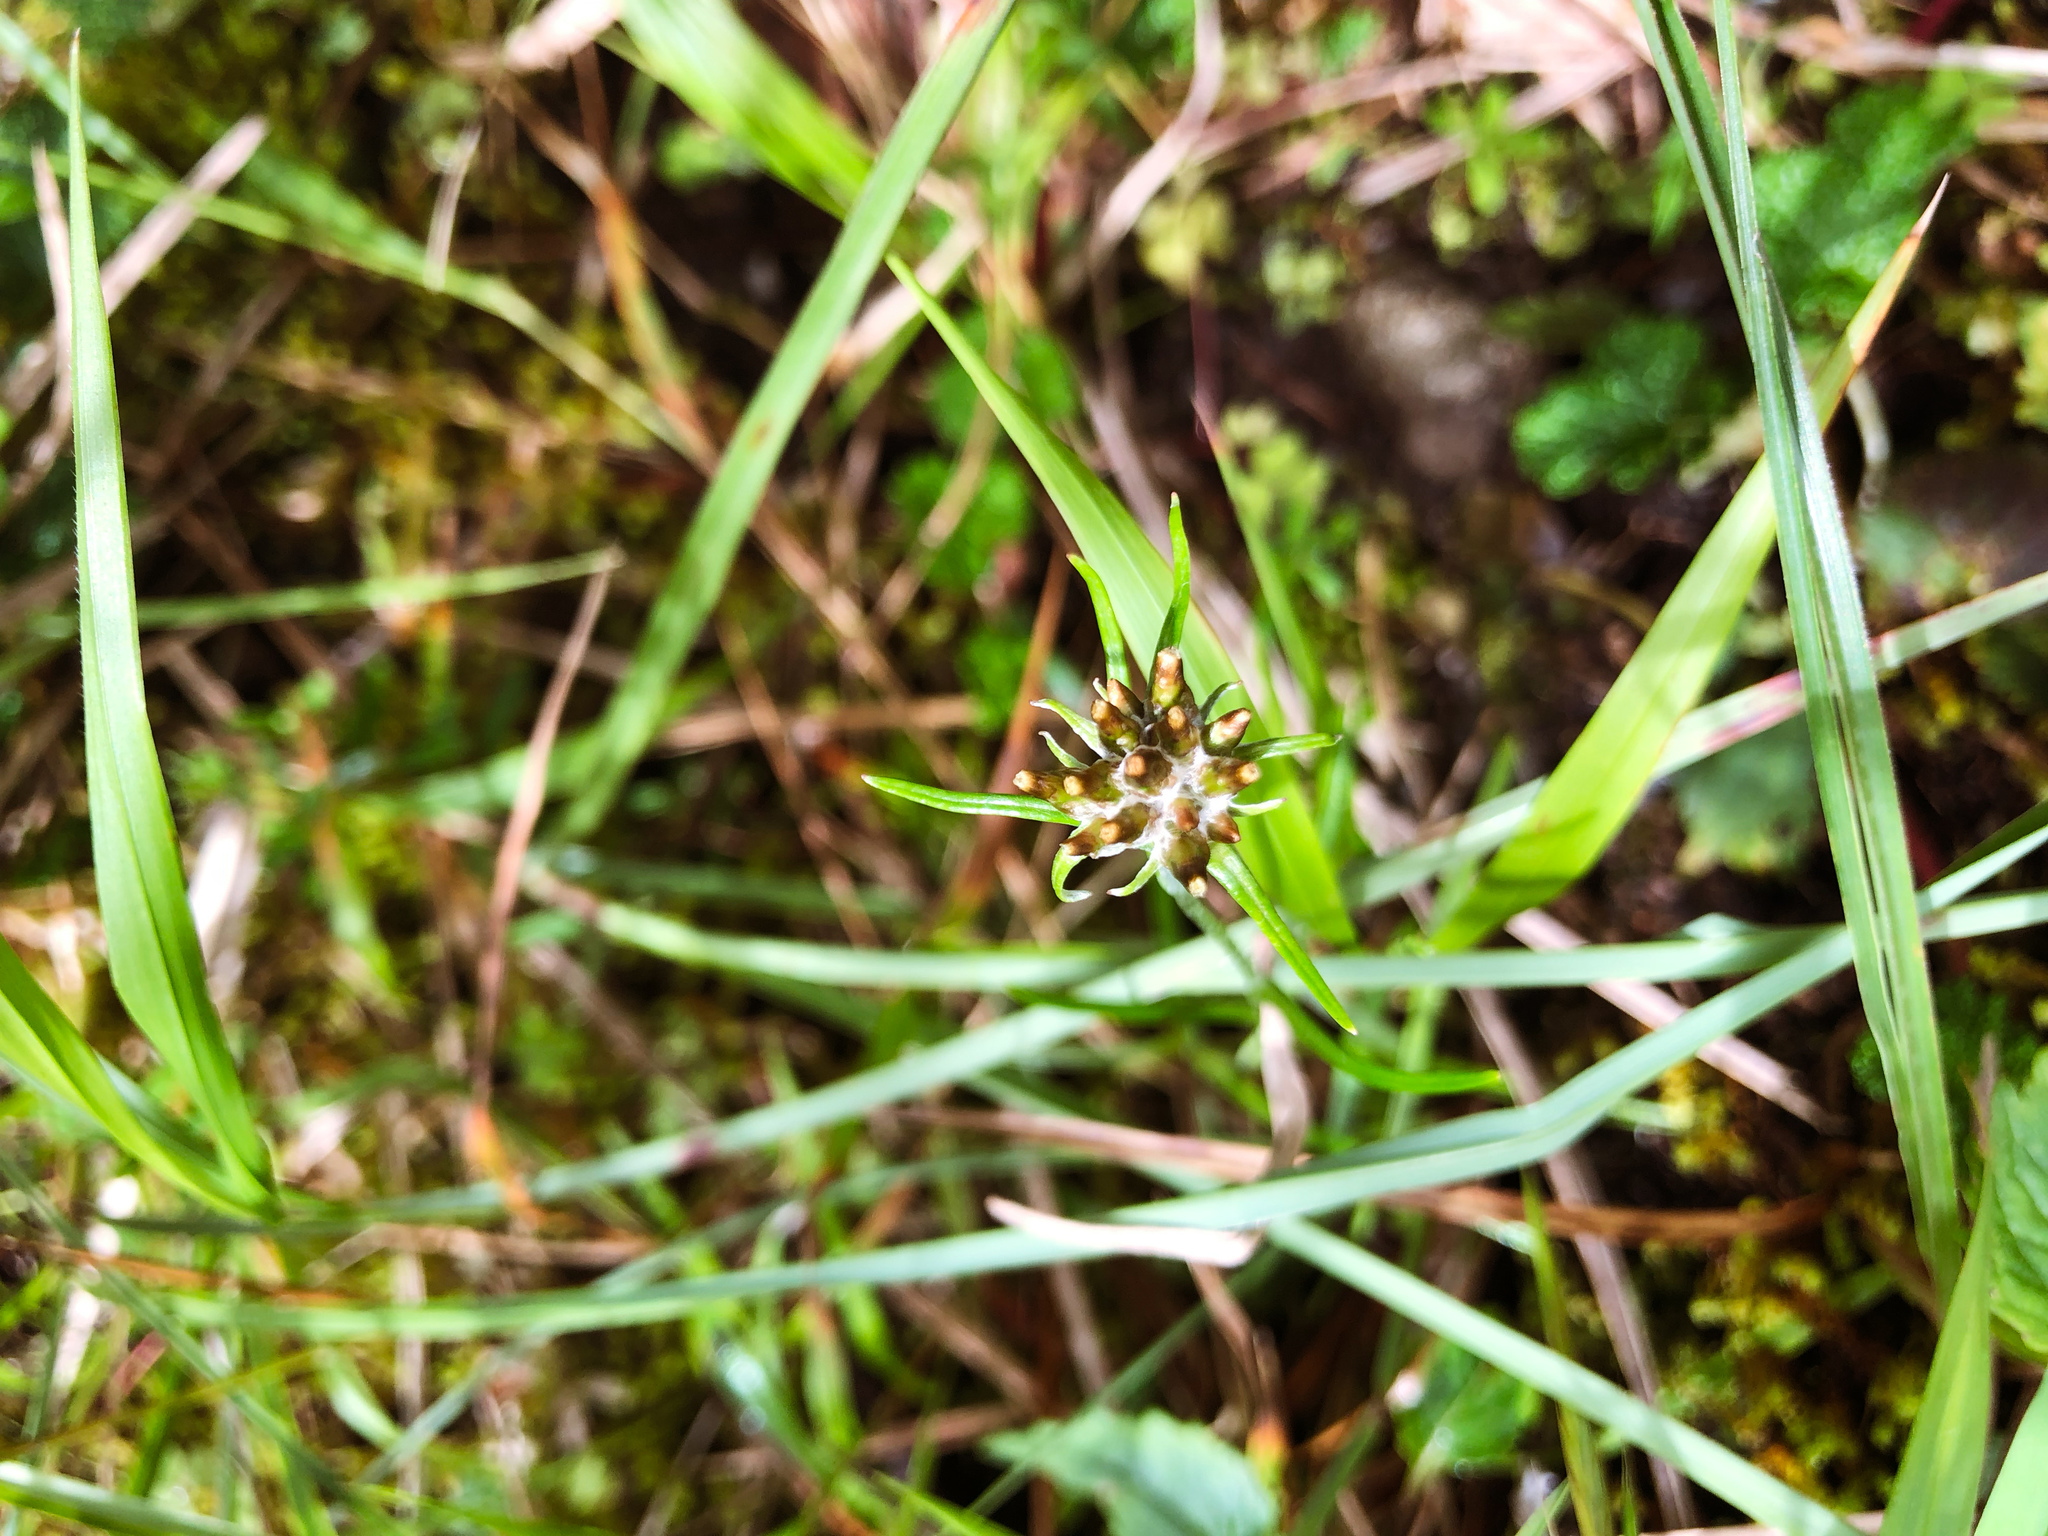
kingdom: Plantae
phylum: Tracheophyta
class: Magnoliopsida
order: Asterales
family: Asteraceae
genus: Euchiton
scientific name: Euchiton involucratus
